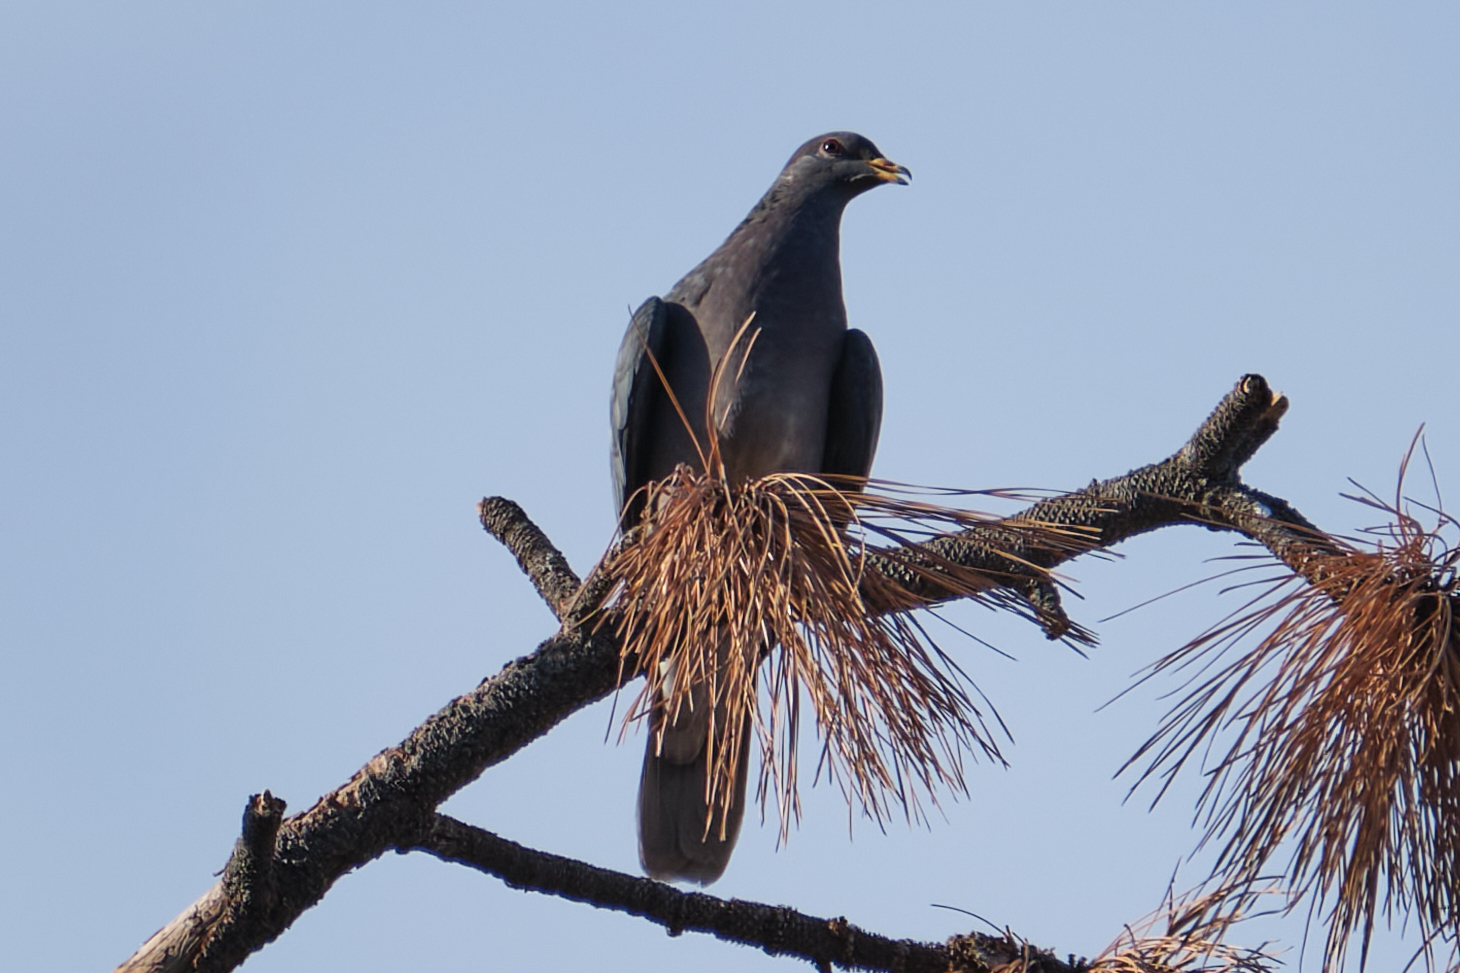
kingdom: Animalia
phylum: Chordata
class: Aves
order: Columbiformes
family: Columbidae
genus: Patagioenas
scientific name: Patagioenas fasciata
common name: Band-tailed pigeon
